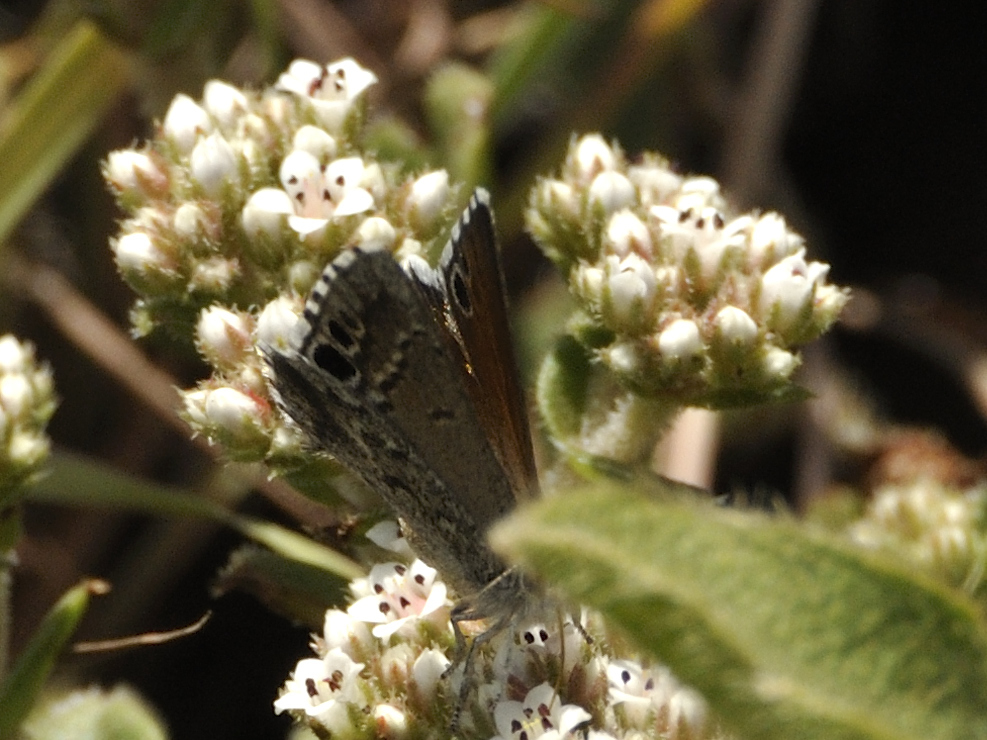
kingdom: Animalia
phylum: Arthropoda
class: Insecta
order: Lepidoptera
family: Lycaenidae
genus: Leptomyrina
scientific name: Leptomyrina lara
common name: Cape black-eye
